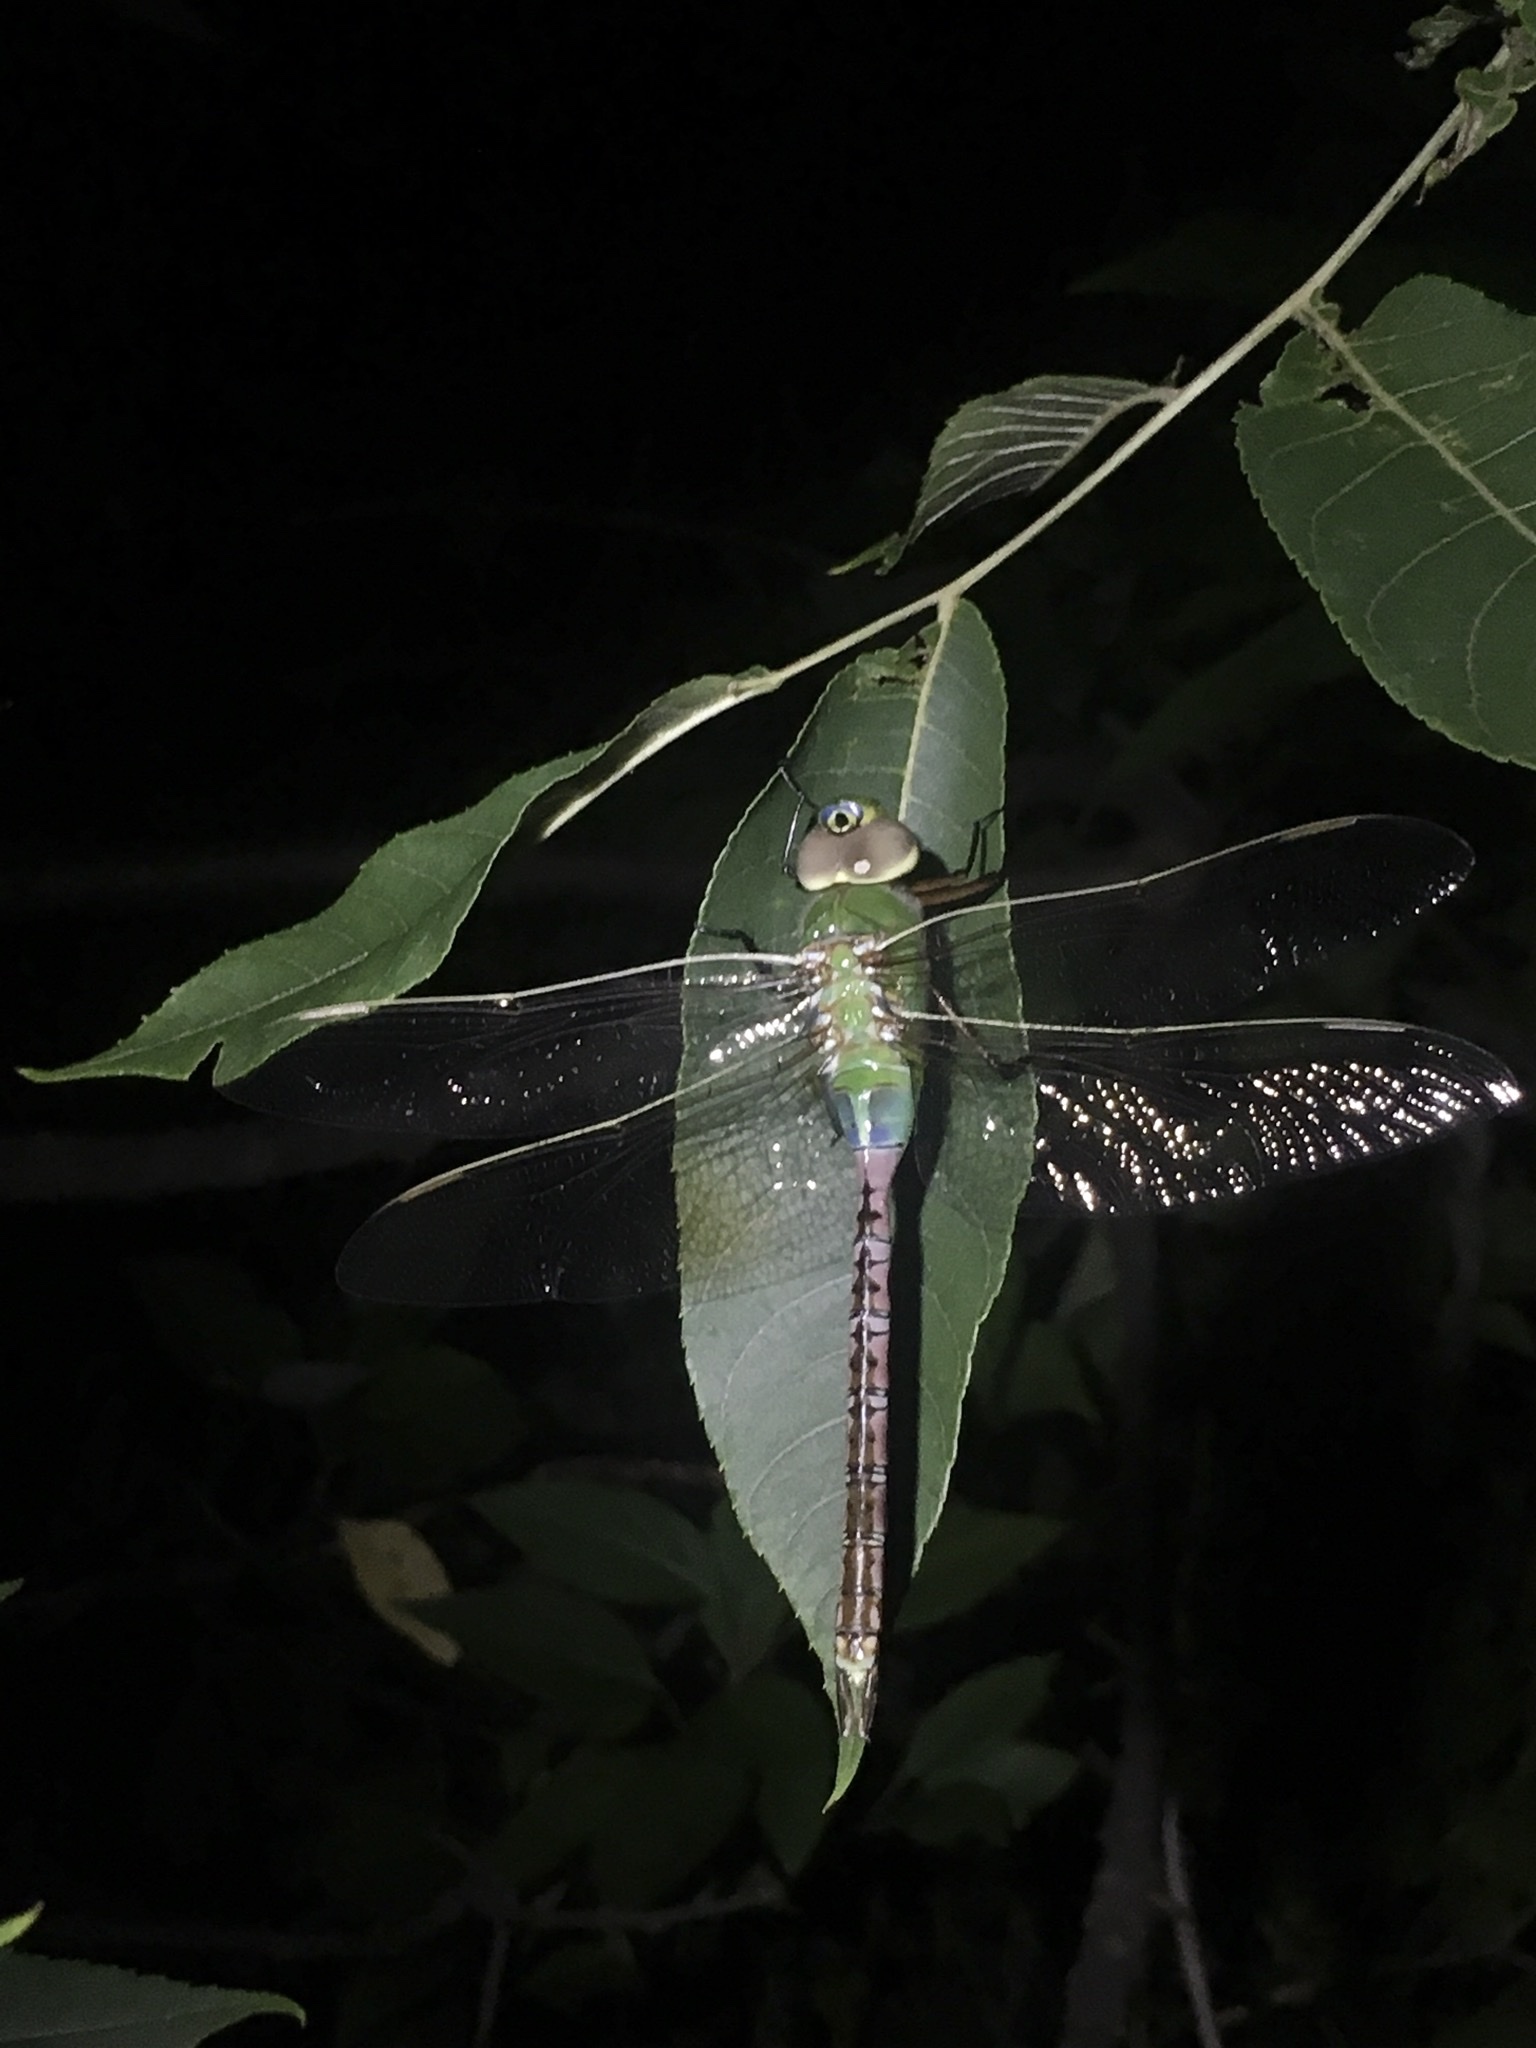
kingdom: Animalia
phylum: Arthropoda
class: Insecta
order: Odonata
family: Aeshnidae
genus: Anax
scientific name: Anax junius
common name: Common green darner
